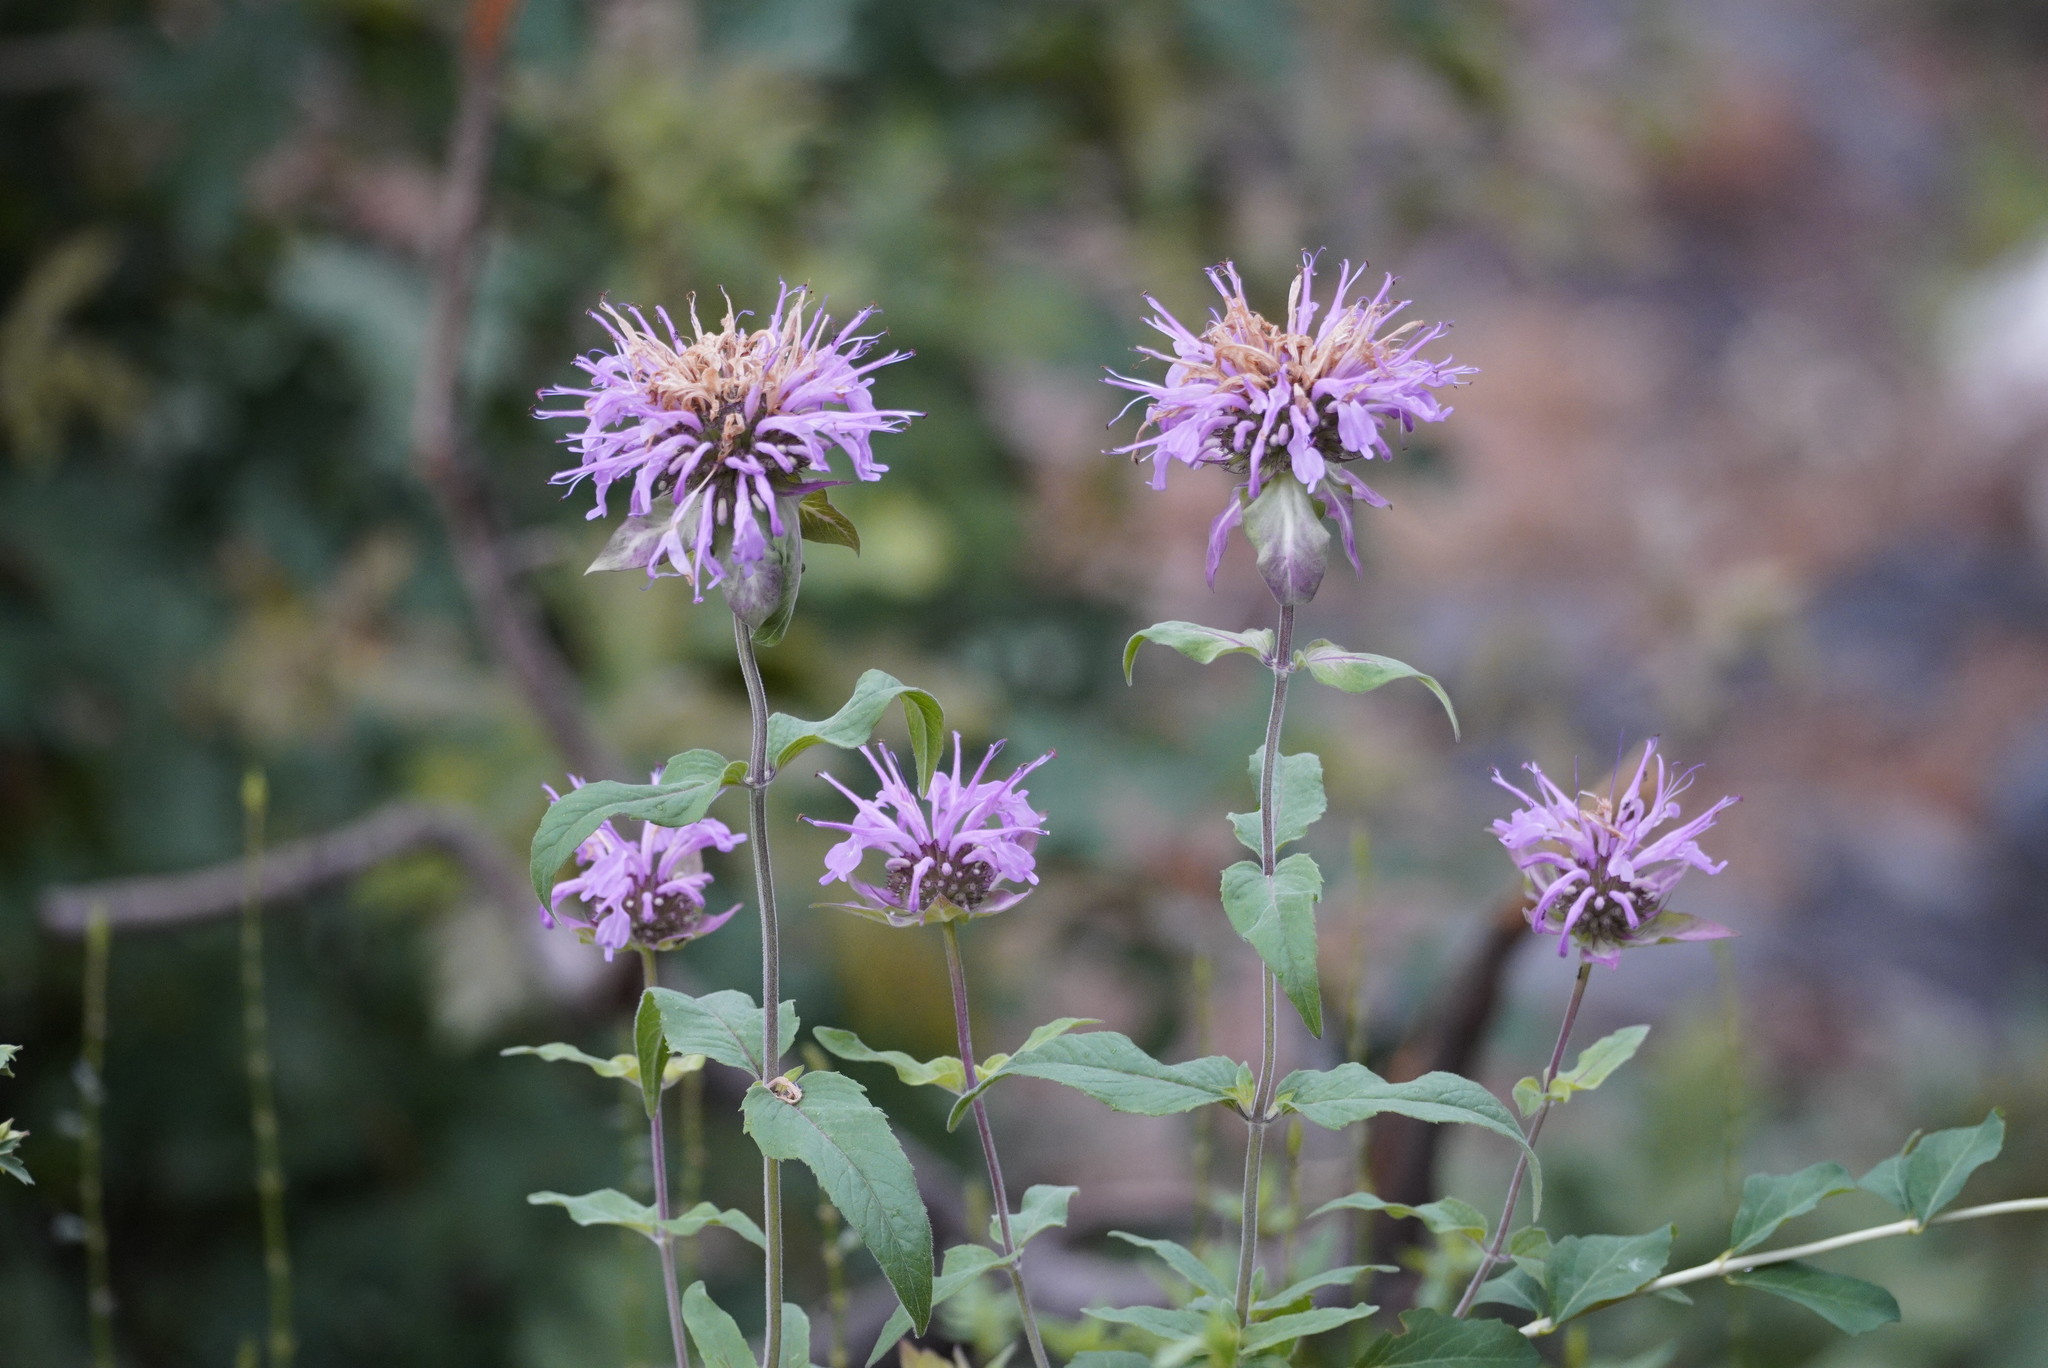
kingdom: Plantae
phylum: Tracheophyta
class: Magnoliopsida
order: Lamiales
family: Lamiaceae
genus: Monarda
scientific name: Monarda fistulosa
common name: Purple beebalm
